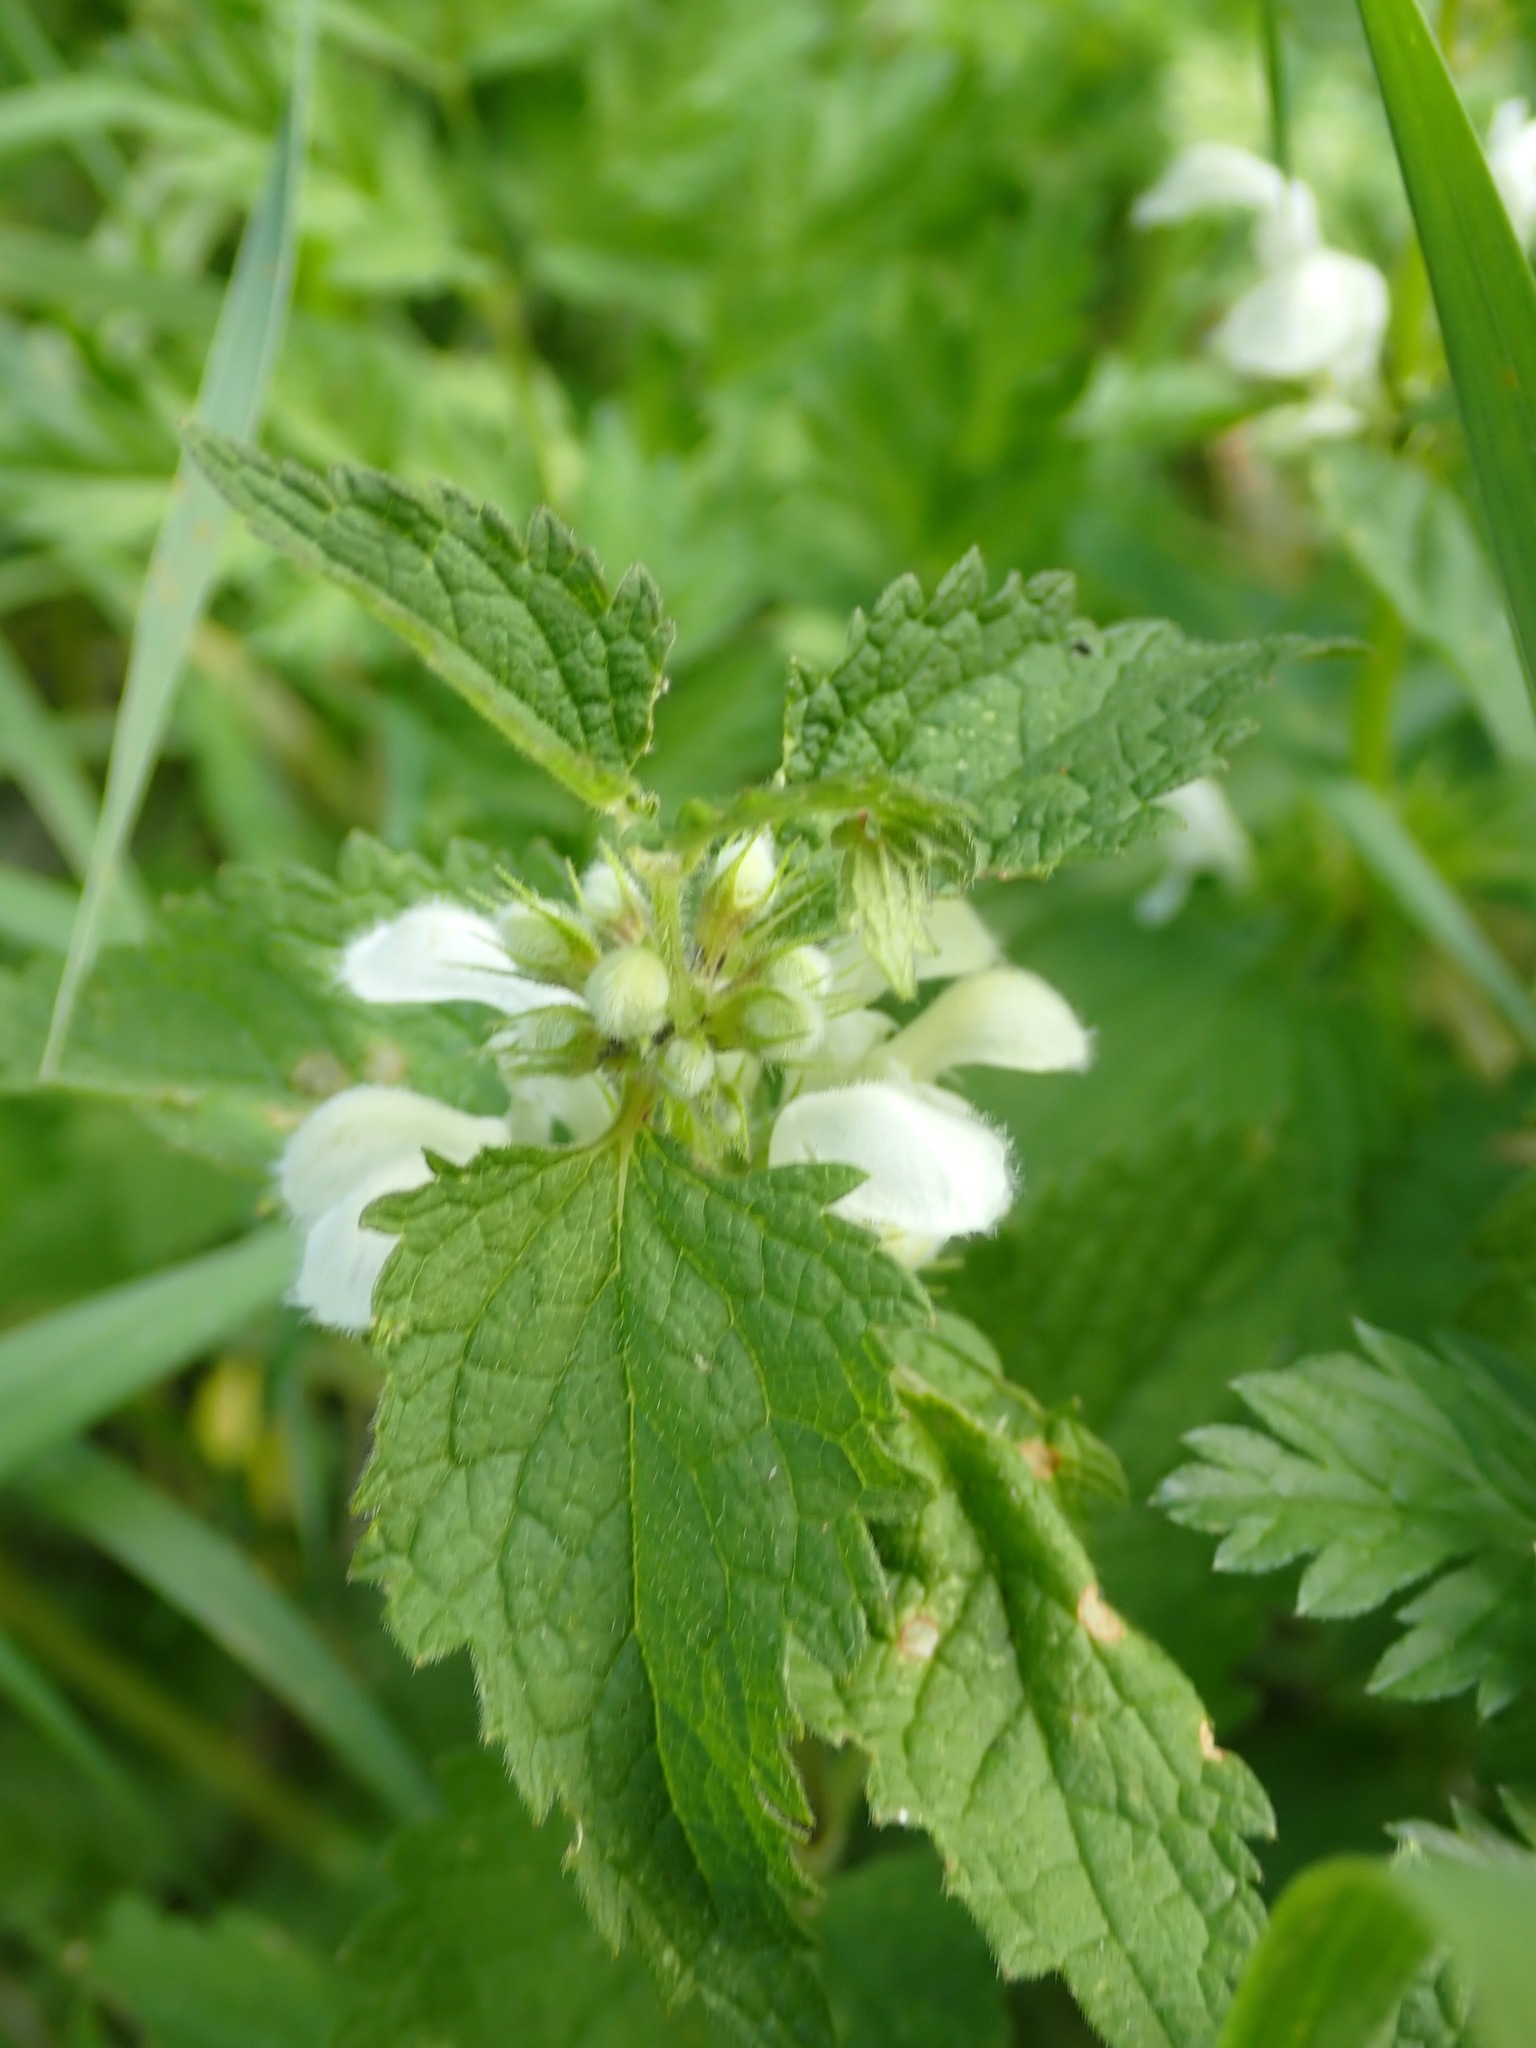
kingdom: Plantae
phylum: Tracheophyta
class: Magnoliopsida
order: Lamiales
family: Lamiaceae
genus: Lamium
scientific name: Lamium album
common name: White dead-nettle
